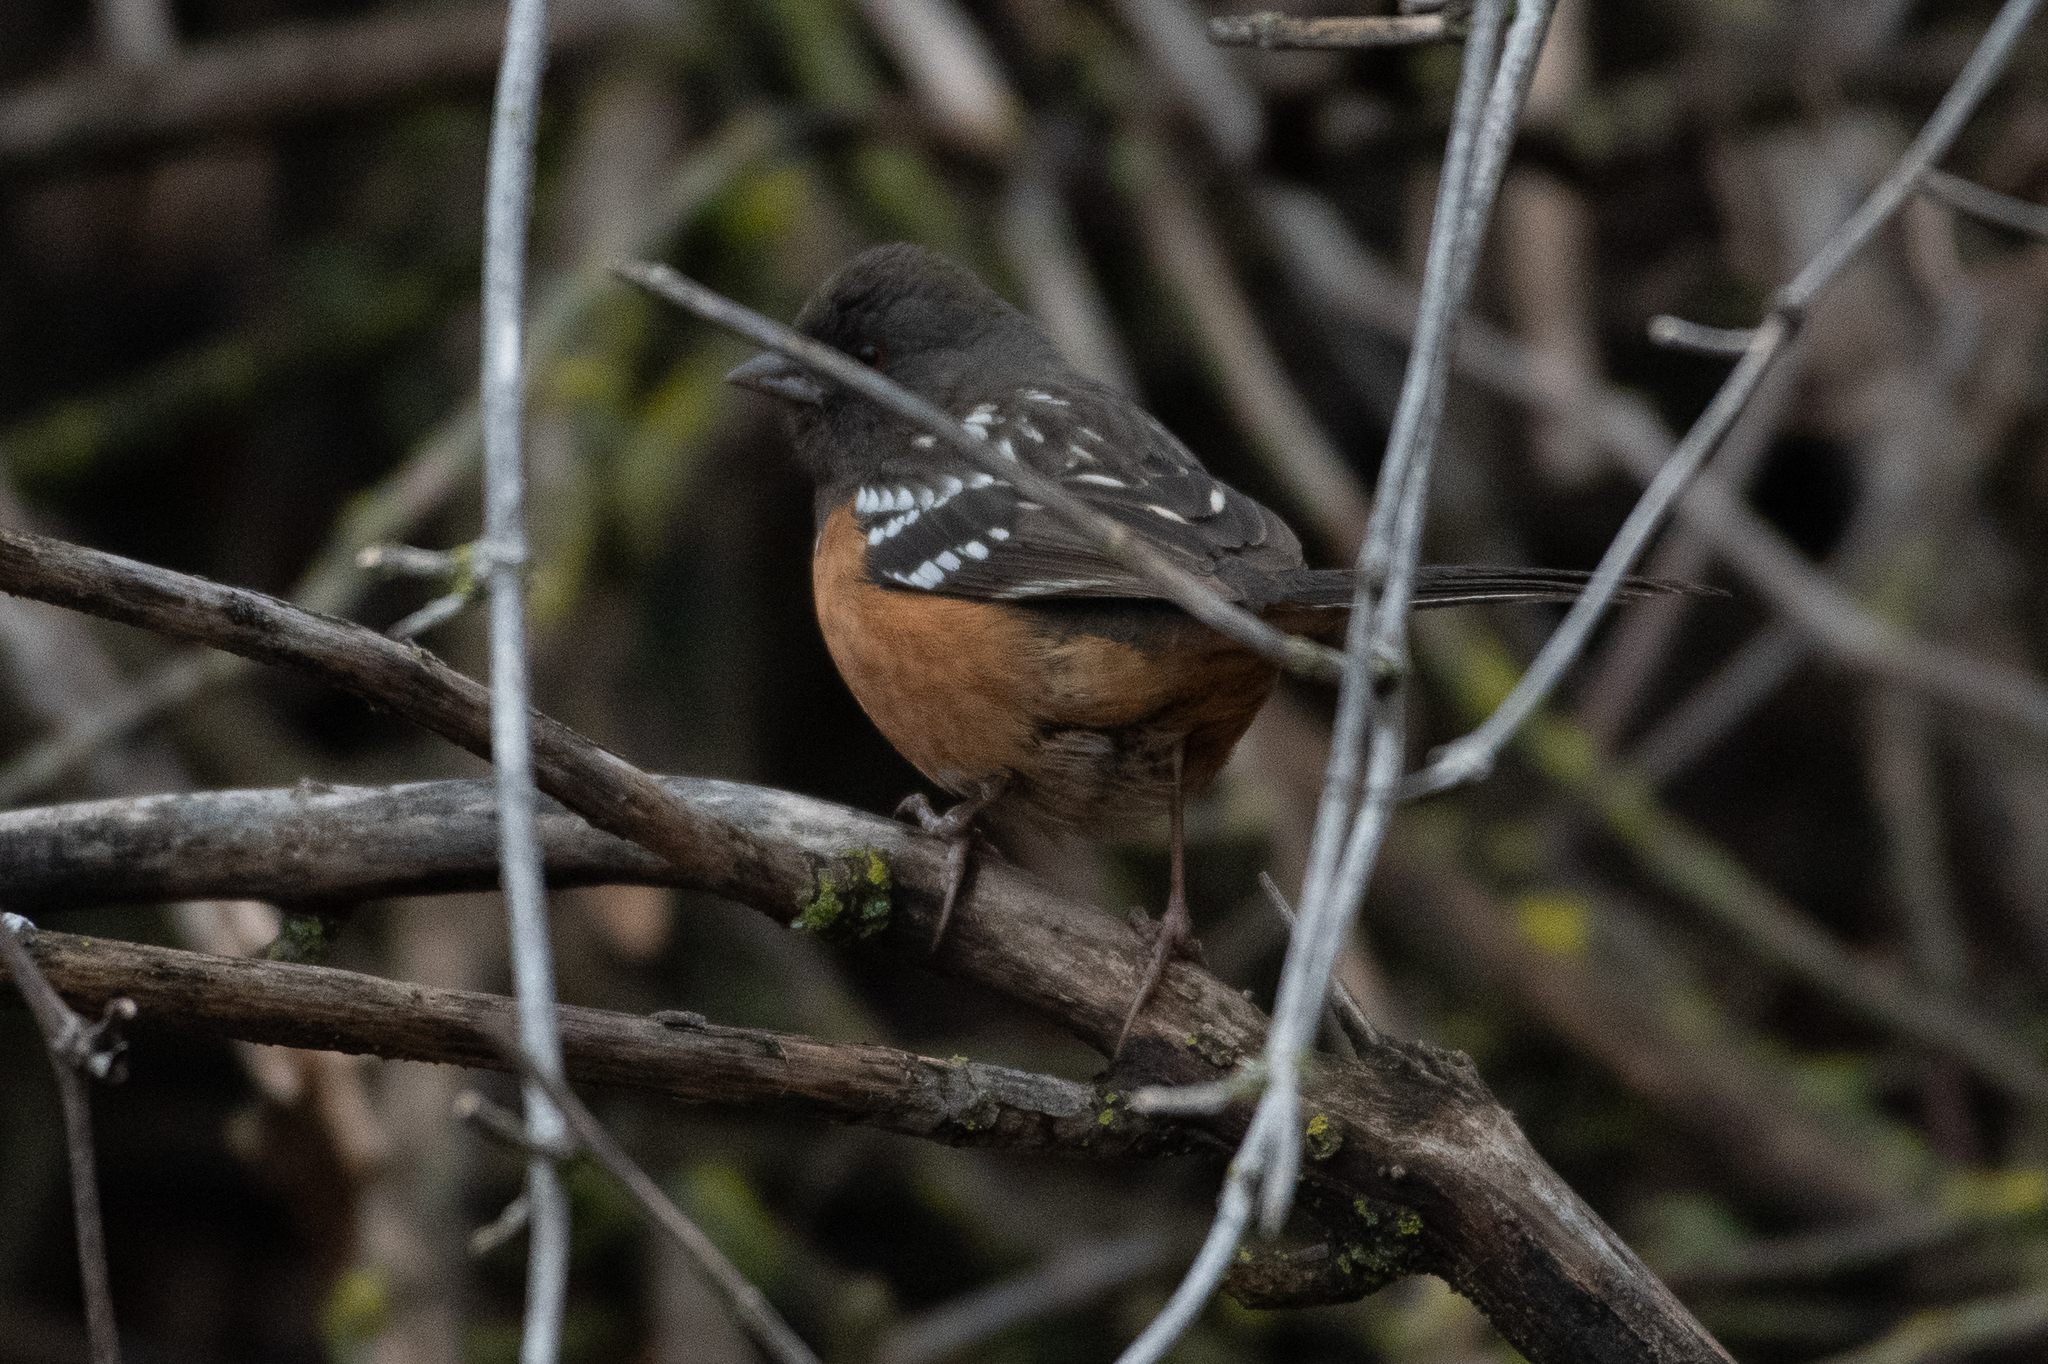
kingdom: Animalia
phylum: Chordata
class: Aves
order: Passeriformes
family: Passerellidae
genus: Pipilo
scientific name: Pipilo maculatus
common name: Spotted towhee
